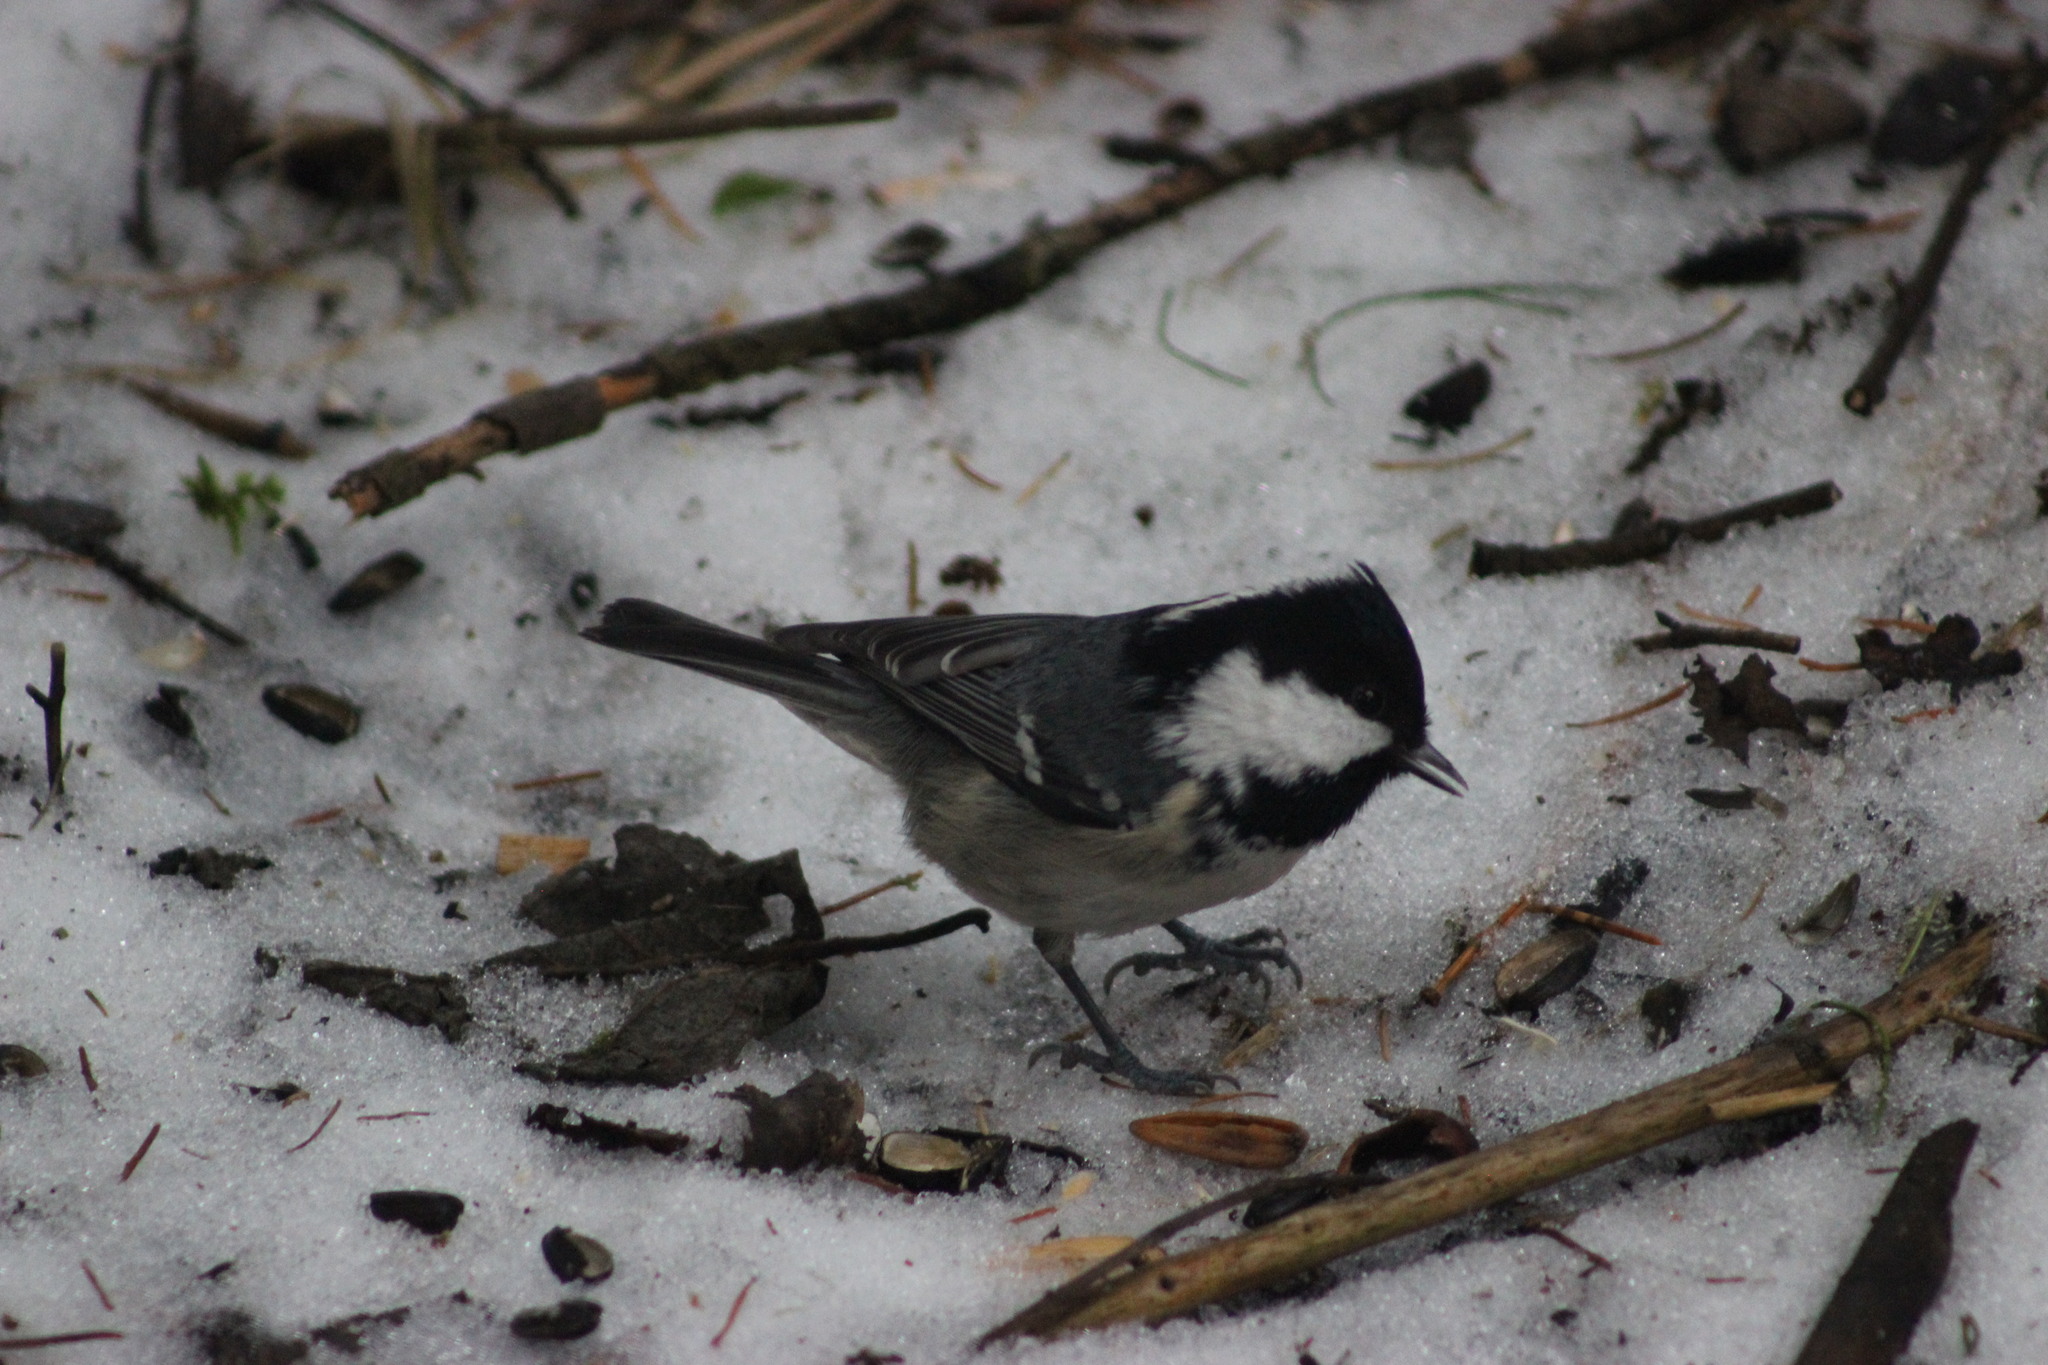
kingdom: Animalia
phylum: Chordata
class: Aves
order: Passeriformes
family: Paridae
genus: Periparus
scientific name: Periparus ater
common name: Coal tit
